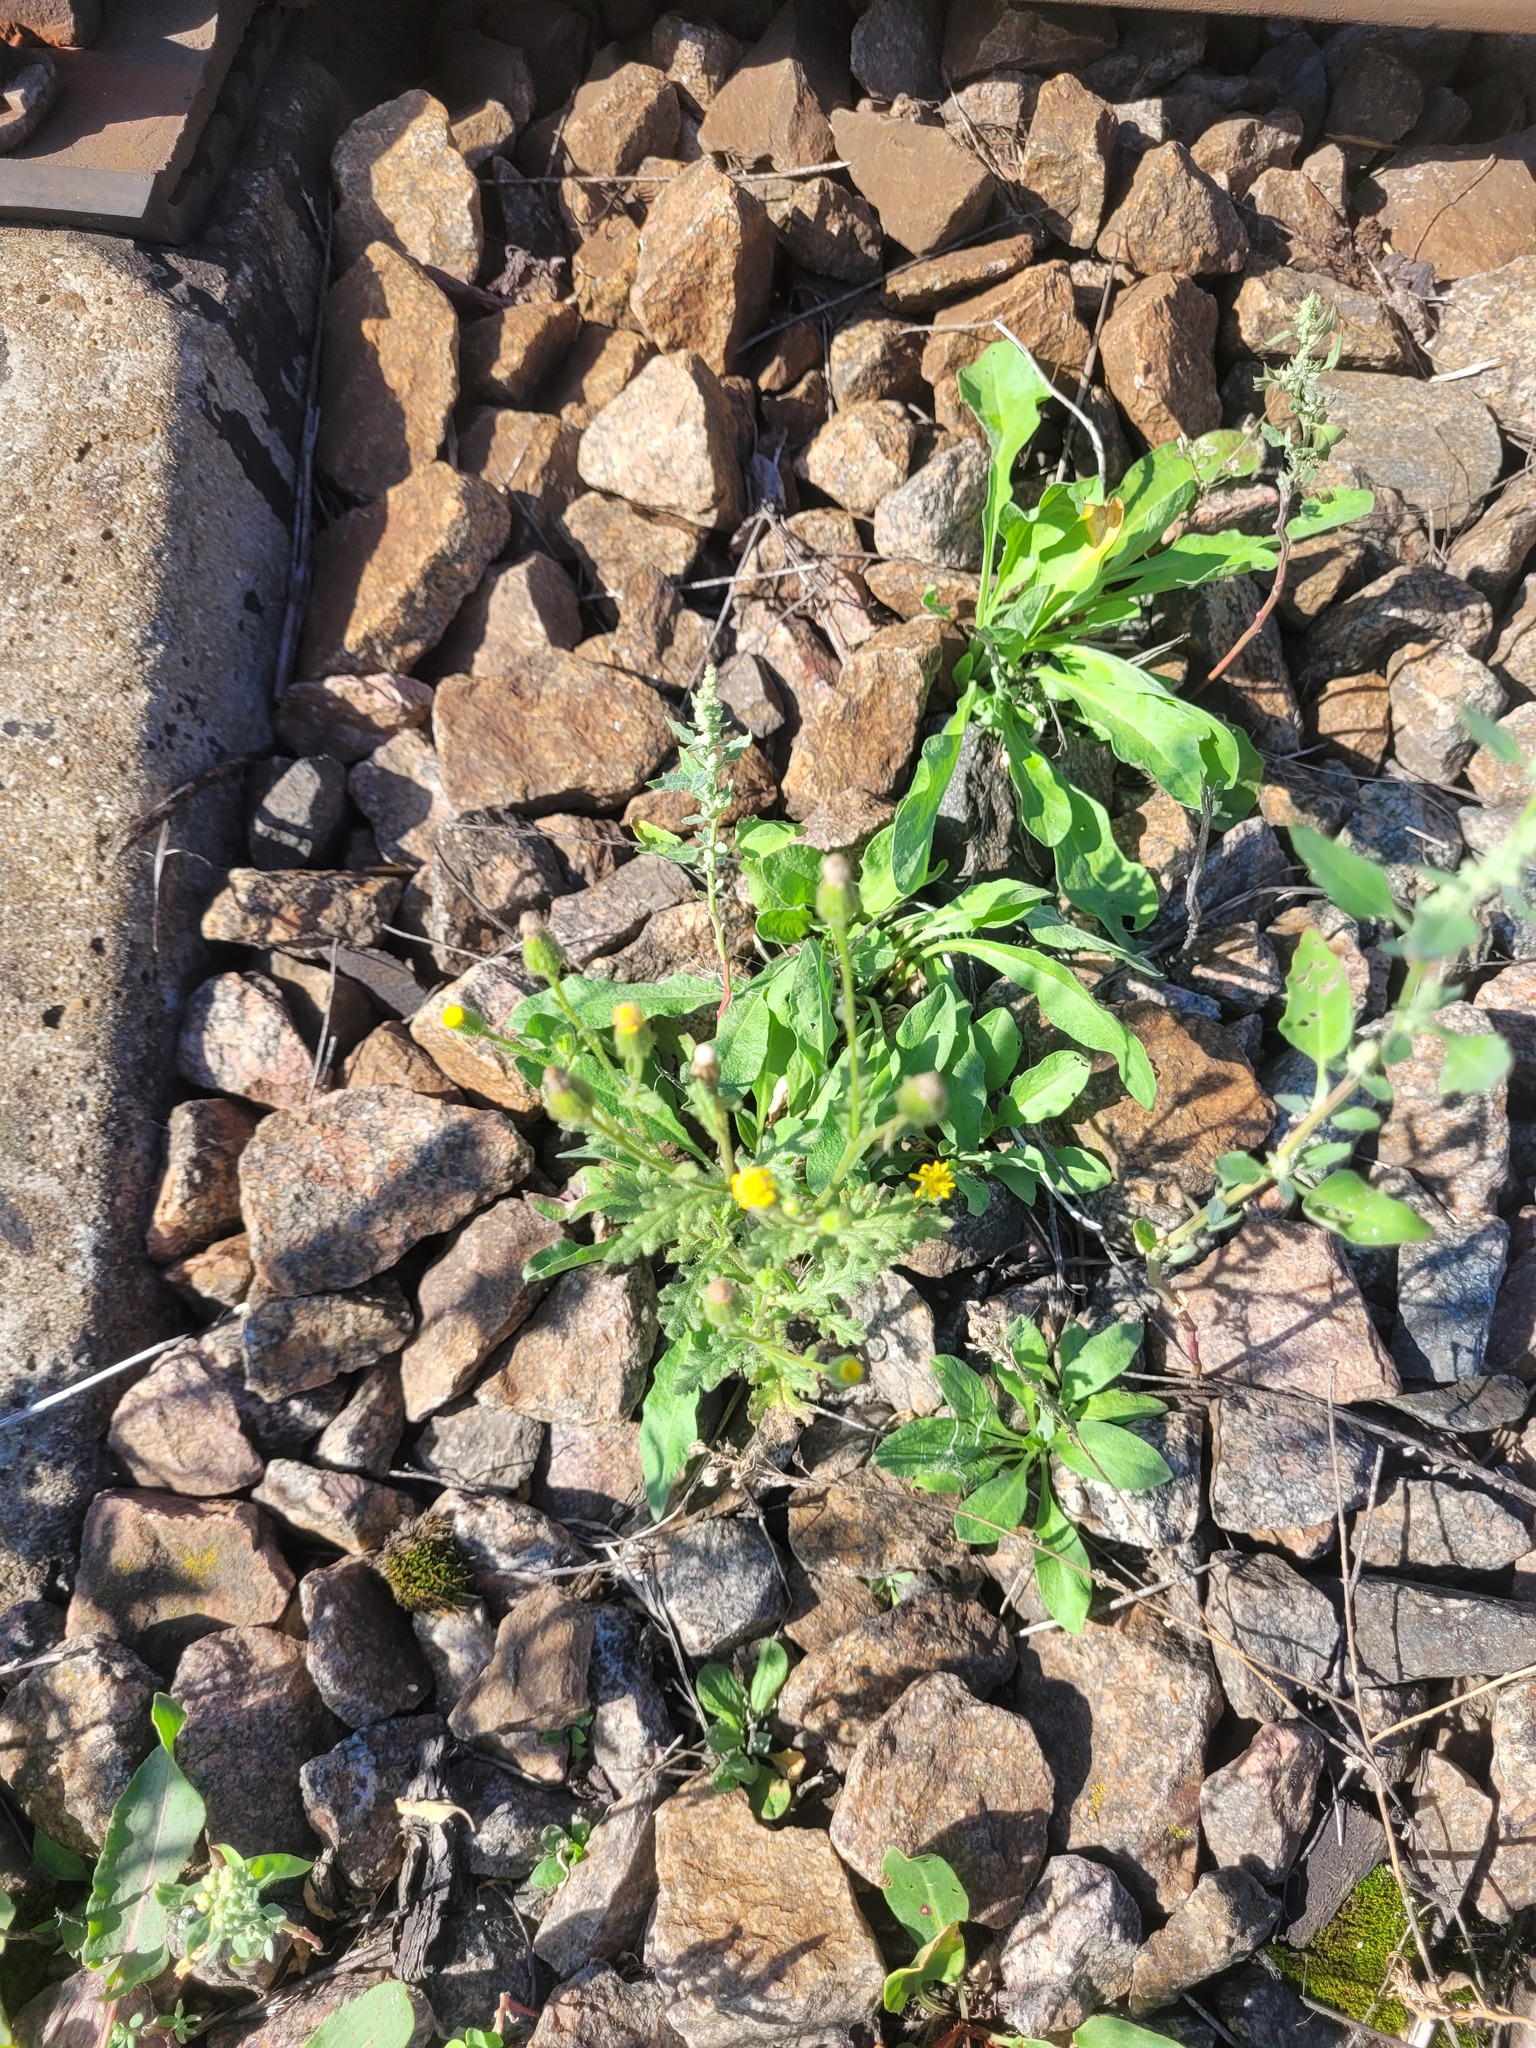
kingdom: Plantae
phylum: Tracheophyta
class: Magnoliopsida
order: Asterales
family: Asteraceae
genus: Senecio
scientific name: Senecio viscosus
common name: Sticky groundsel
